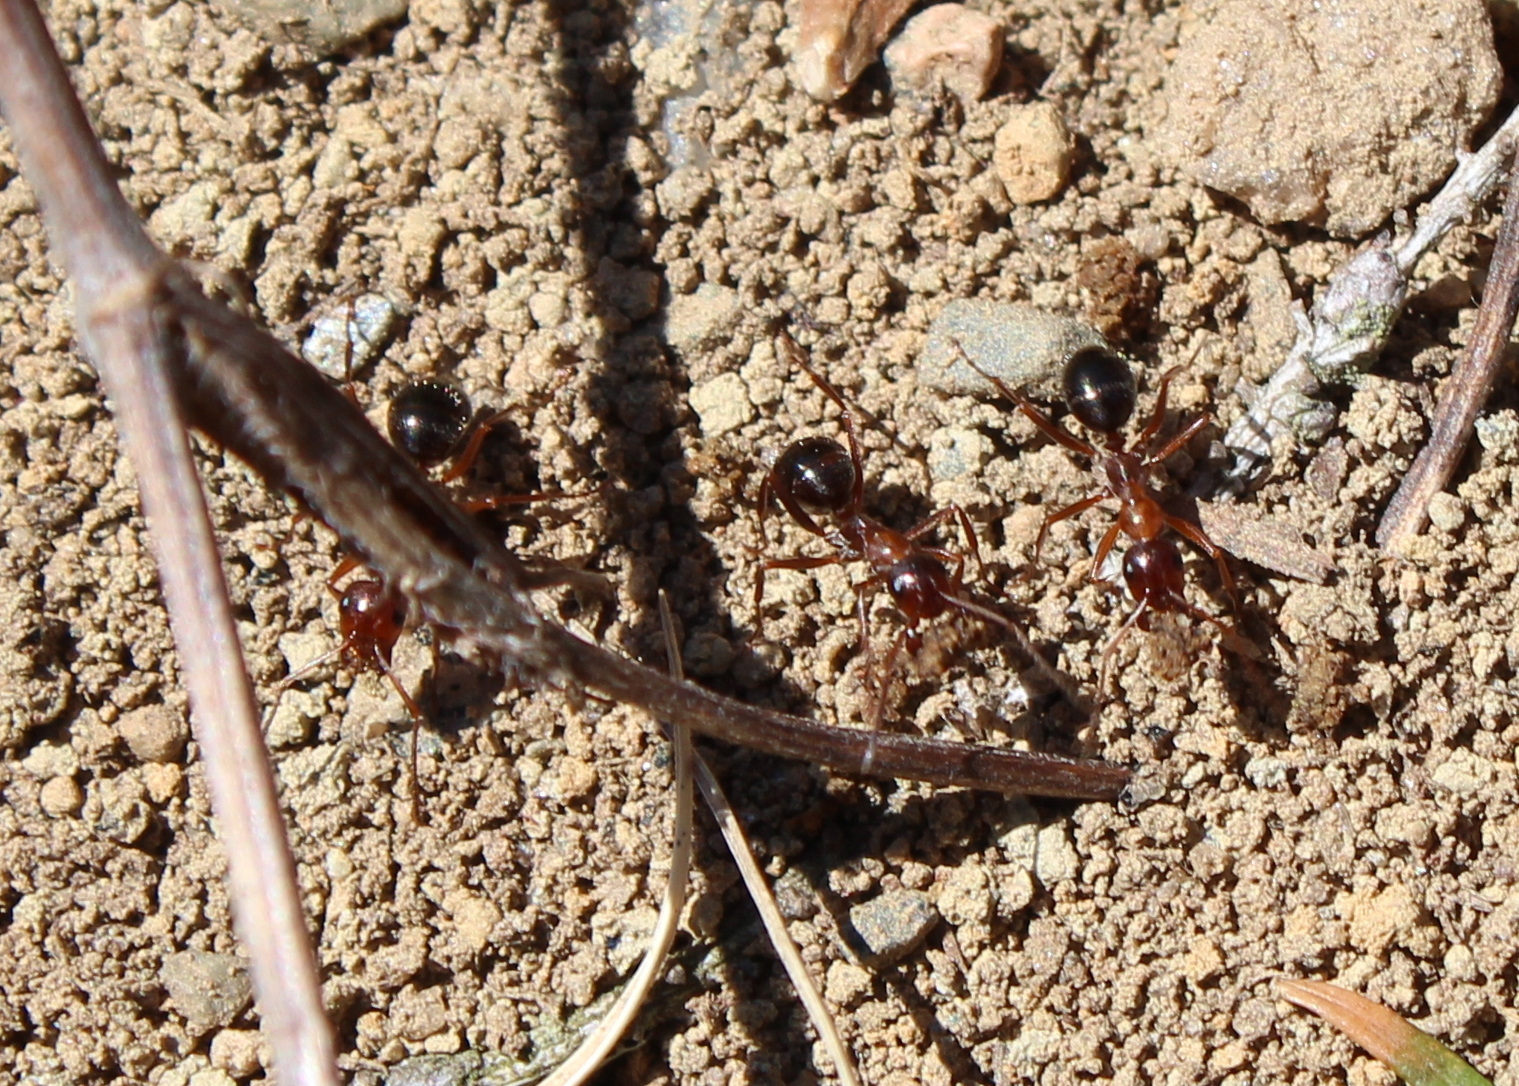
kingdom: Animalia
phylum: Arthropoda
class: Insecta
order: Hymenoptera
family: Formicidae
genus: Formica
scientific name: Formica
